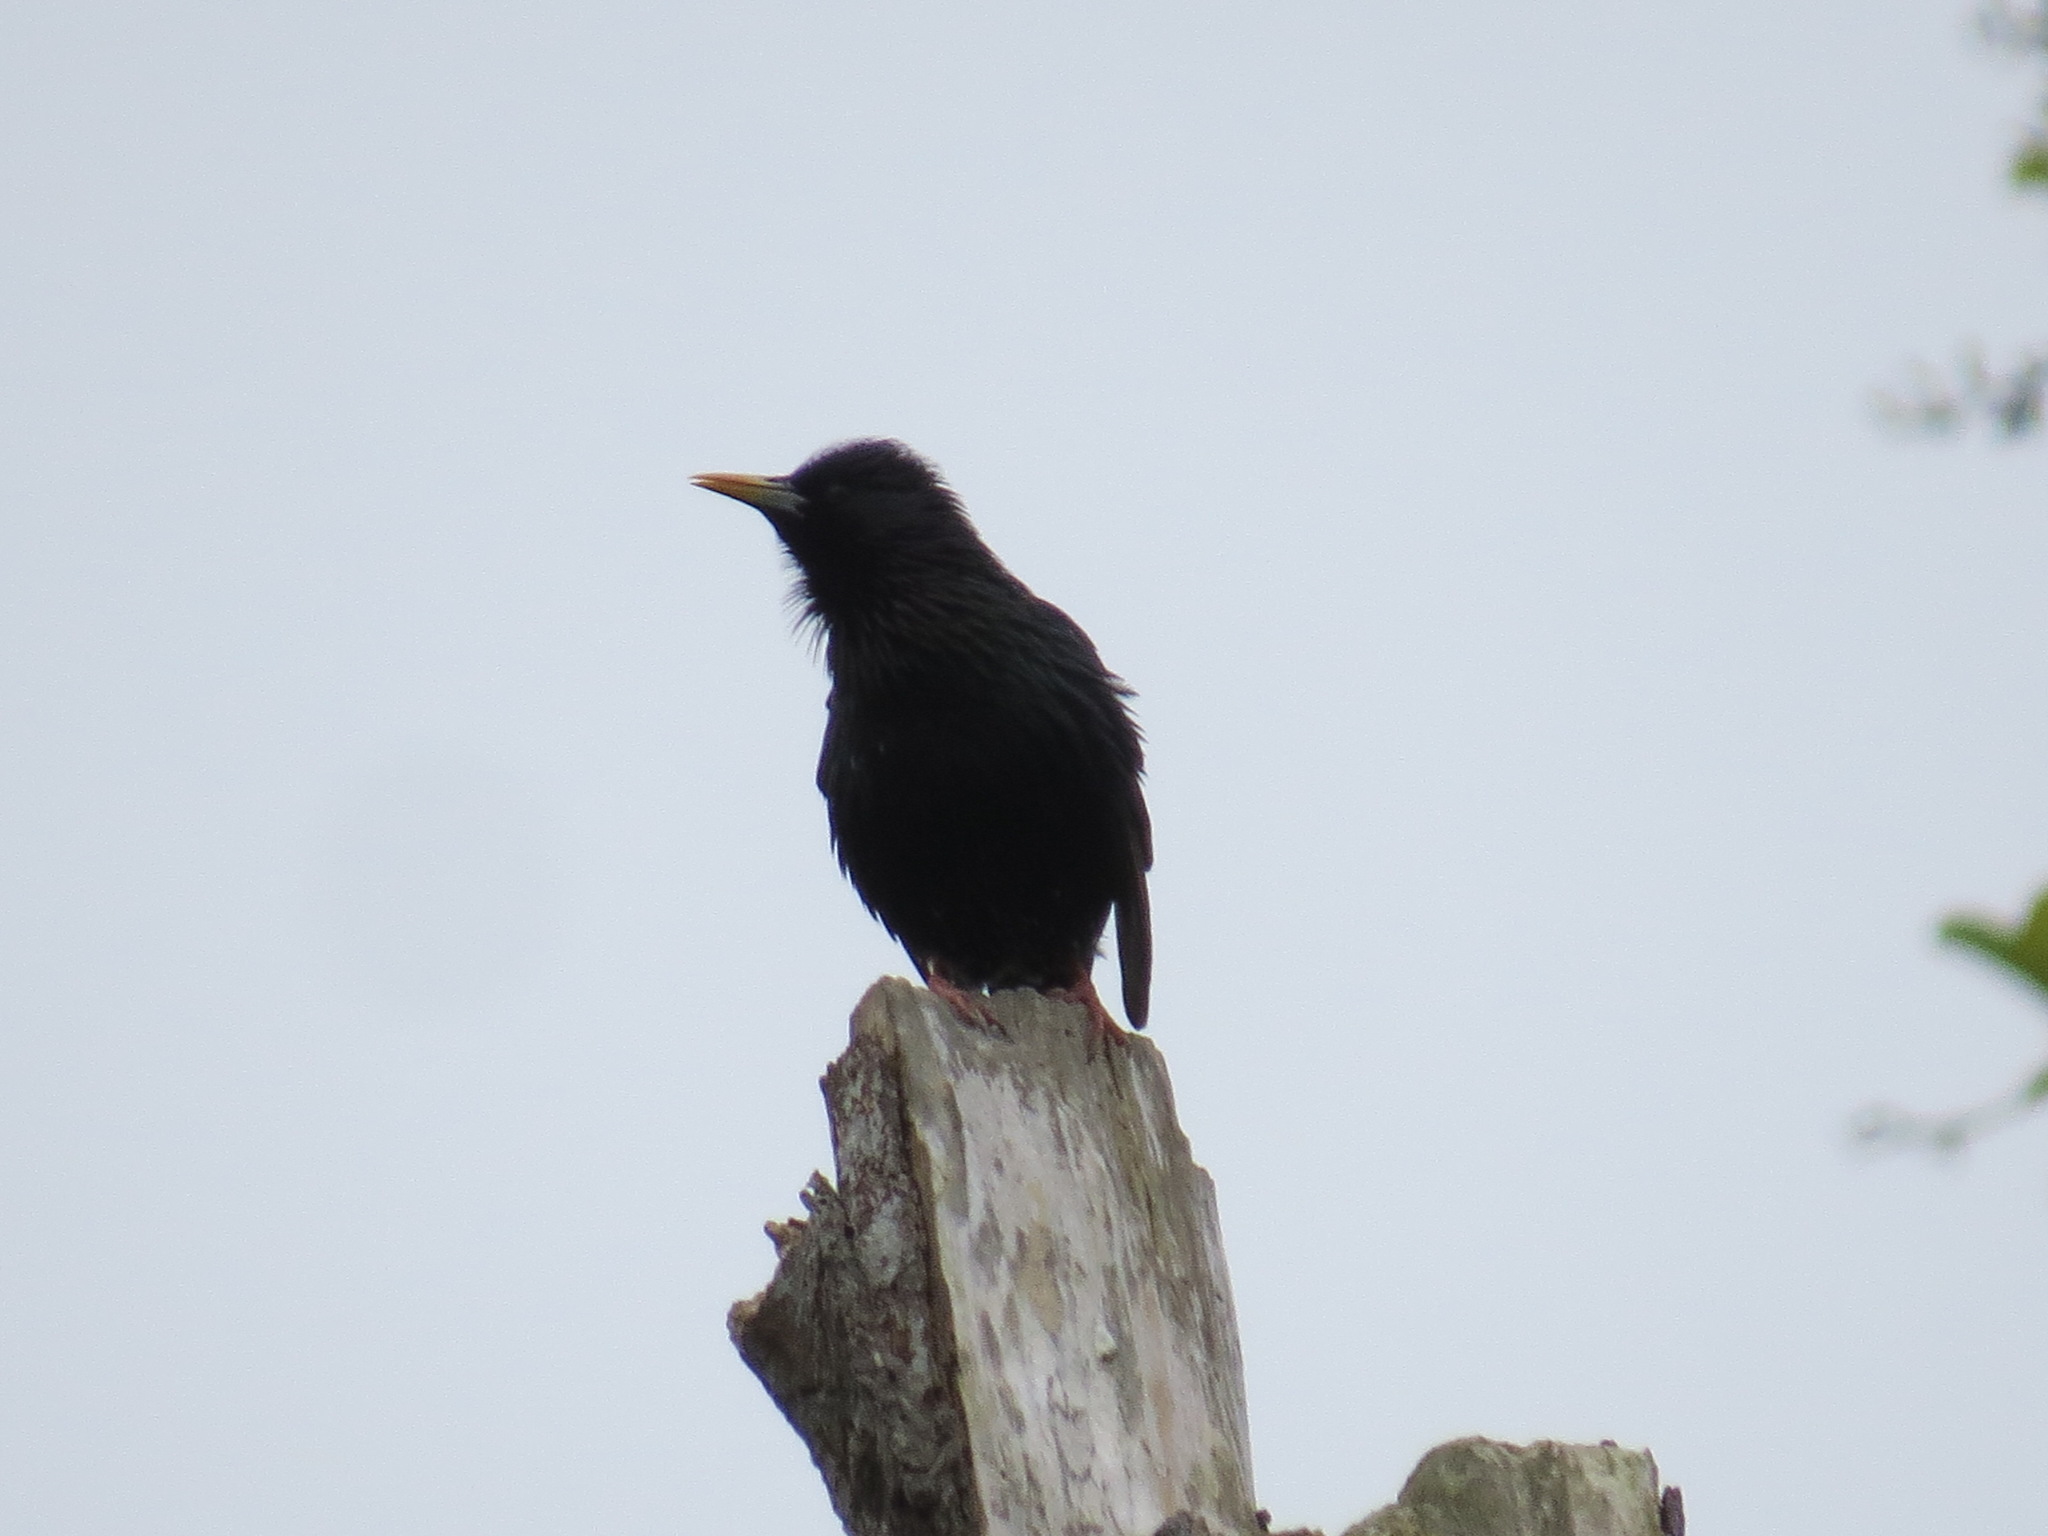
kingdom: Animalia
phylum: Chordata
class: Aves
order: Passeriformes
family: Sturnidae
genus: Sturnus
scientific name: Sturnus vulgaris
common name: Common starling
